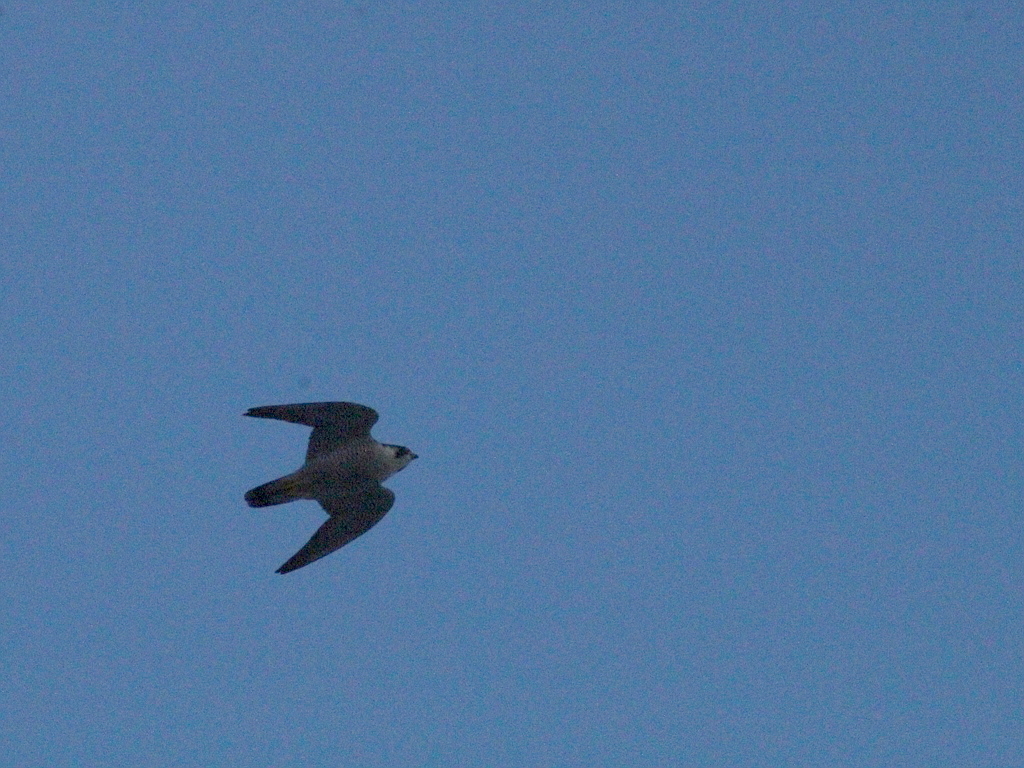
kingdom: Animalia
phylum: Chordata
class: Aves
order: Falconiformes
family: Falconidae
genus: Falco
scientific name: Falco peregrinus
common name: Peregrine falcon
